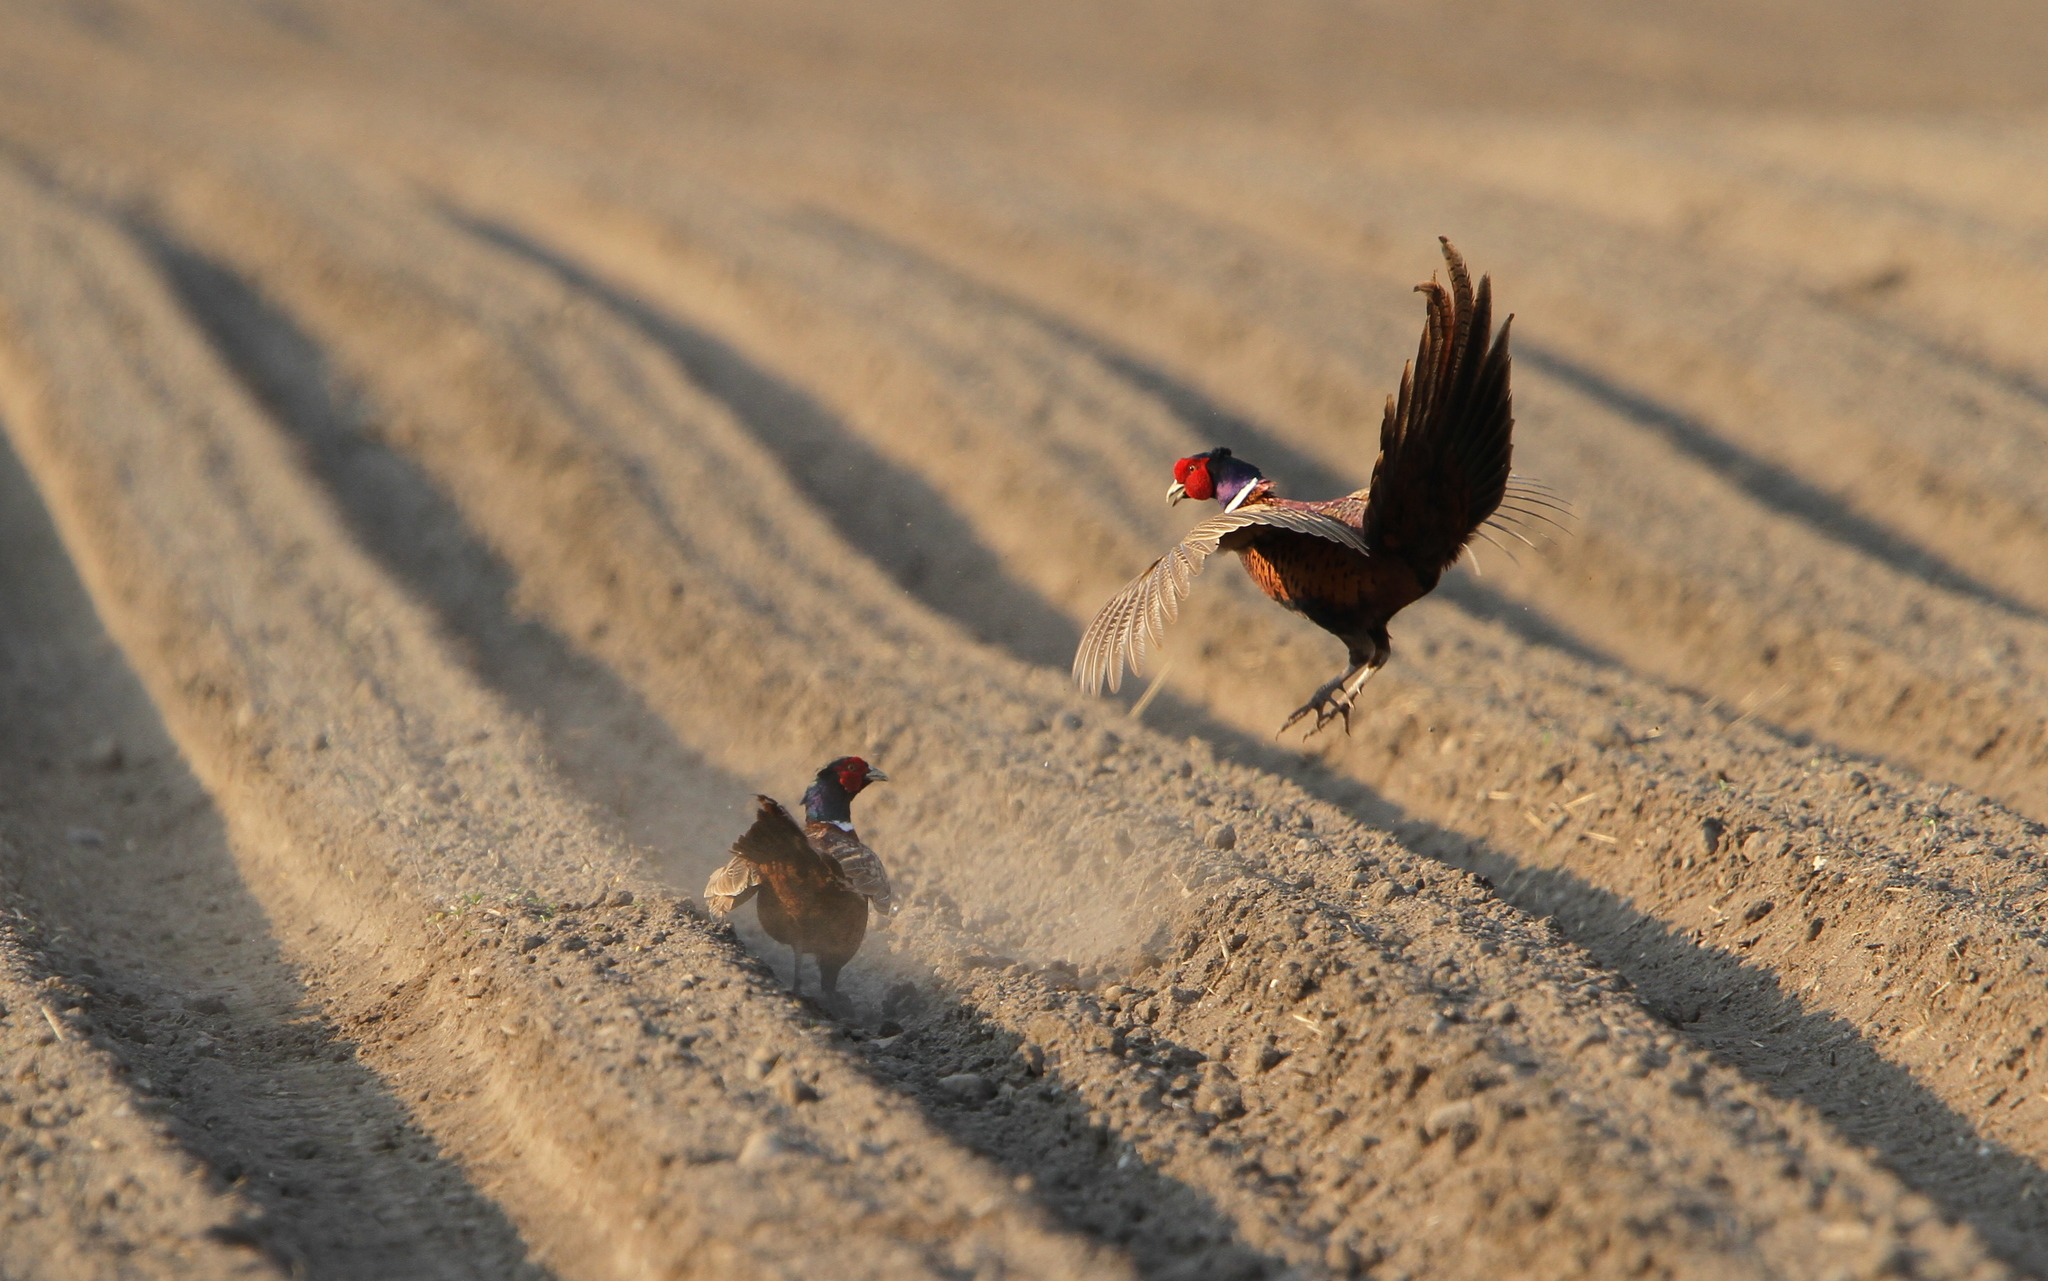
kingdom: Animalia
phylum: Chordata
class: Aves
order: Galliformes
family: Phasianidae
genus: Phasianus
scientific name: Phasianus colchicus
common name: Common pheasant
